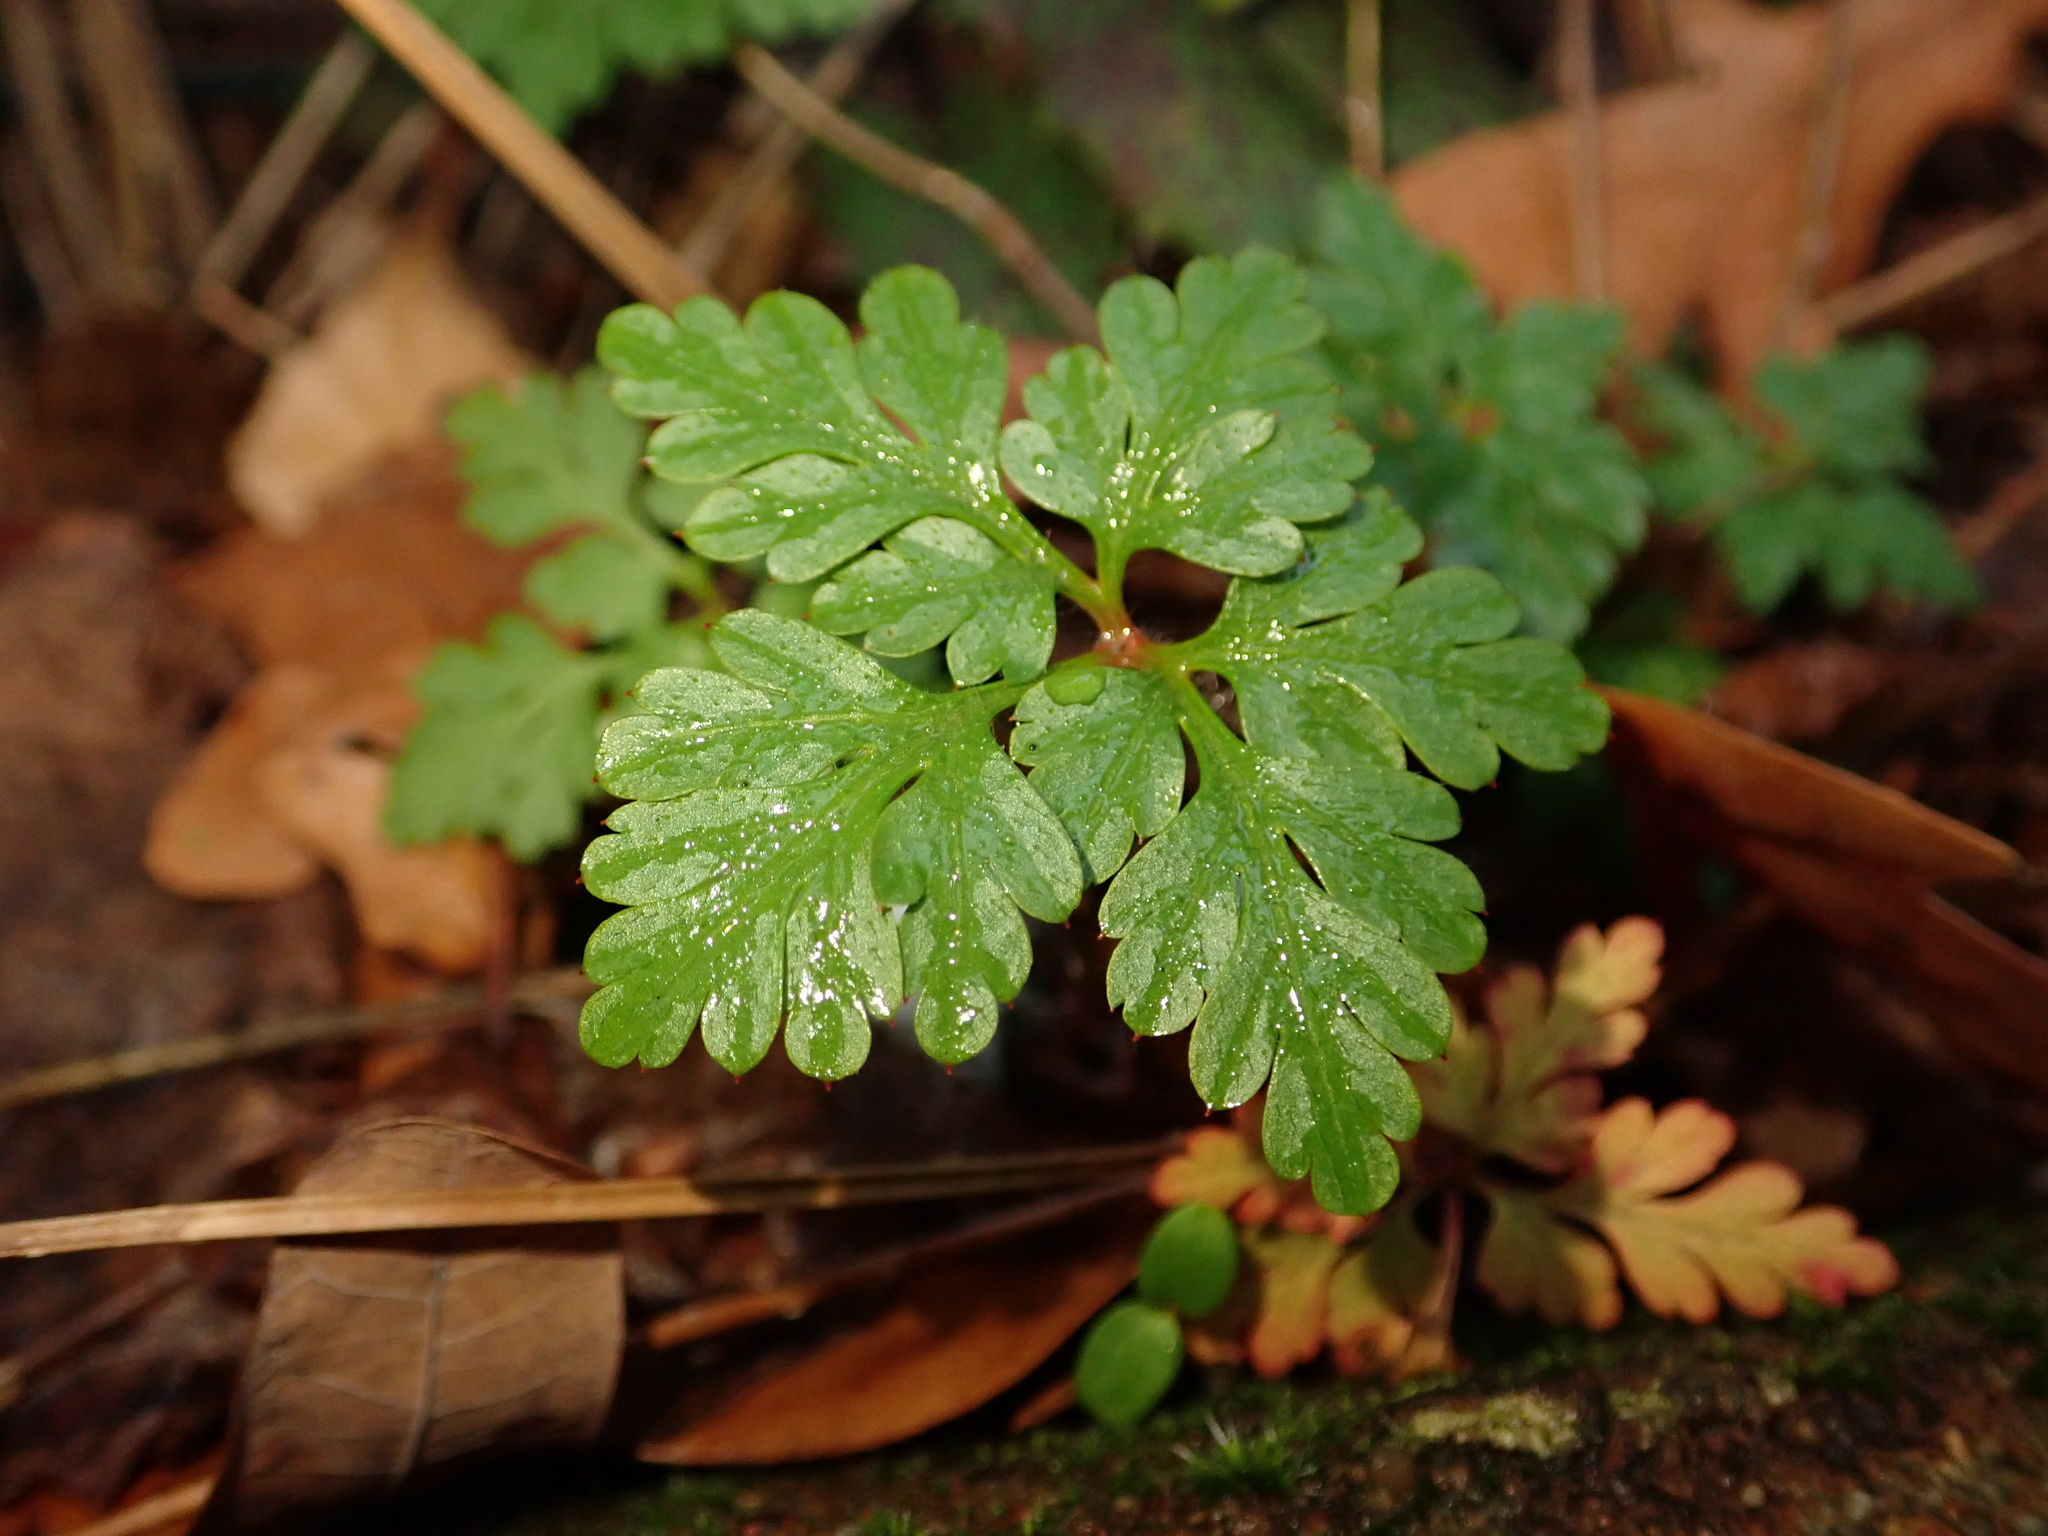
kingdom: Plantae
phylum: Tracheophyta
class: Magnoliopsida
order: Geraniales
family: Geraniaceae
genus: Geranium
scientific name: Geranium robertianum
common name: Herb-robert
